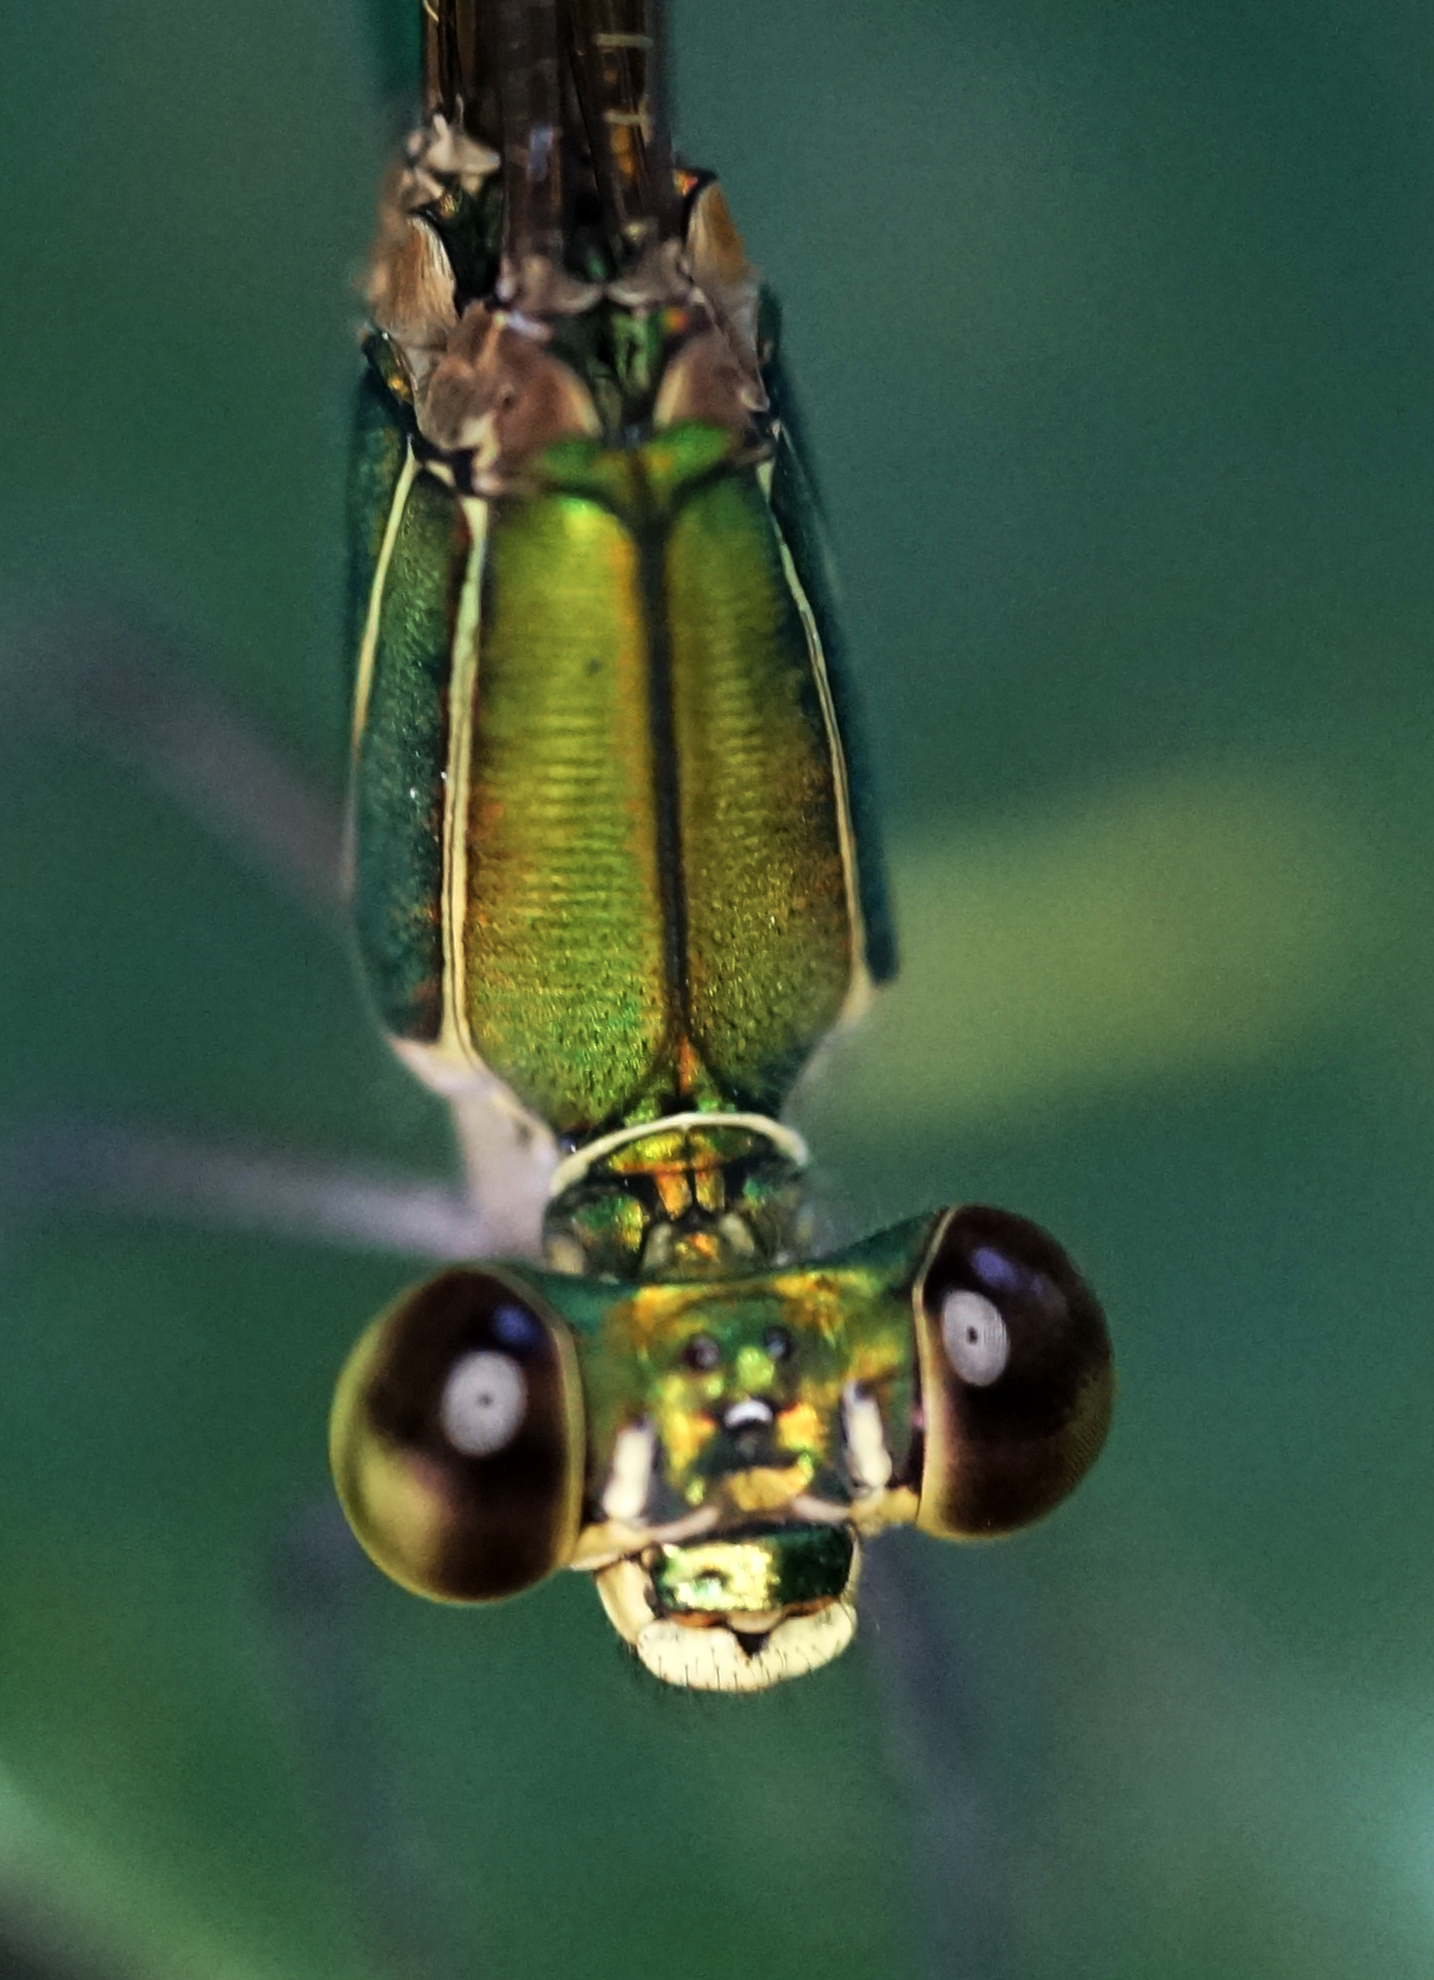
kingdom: Animalia
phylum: Arthropoda
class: Insecta
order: Odonata
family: Calopterygidae
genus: Vestalis
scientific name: Vestalis gracilis
